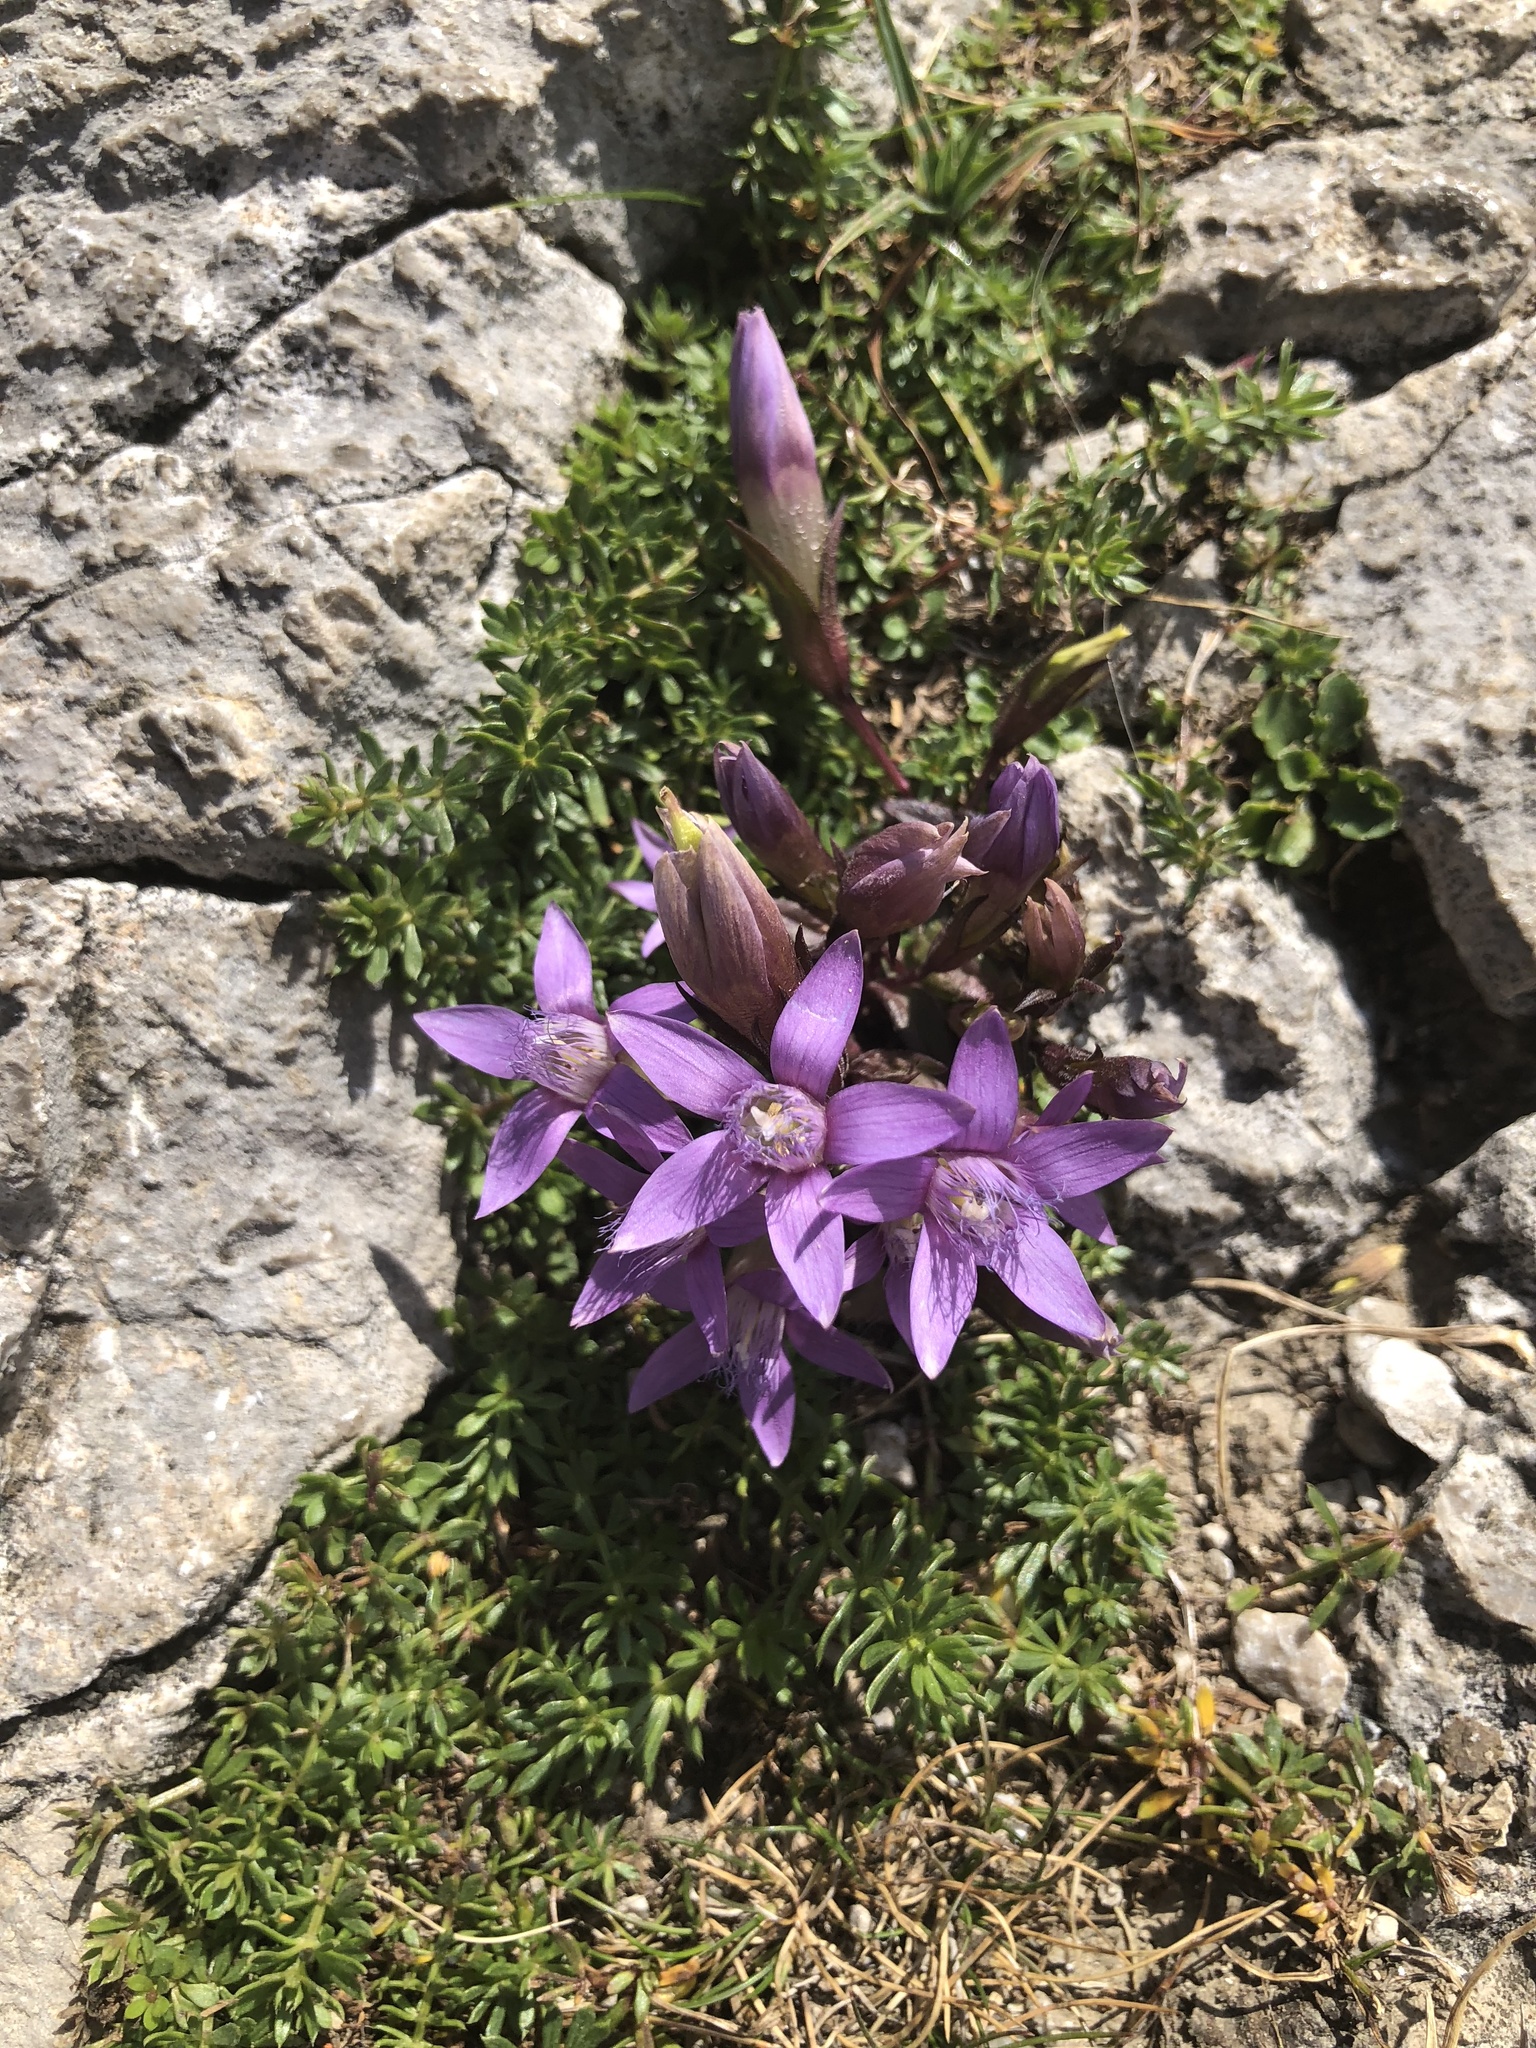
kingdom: Plantae
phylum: Tracheophyta
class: Magnoliopsida
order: Gentianales
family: Gentianaceae
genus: Gentianella
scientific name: Gentianella obtusifolia
